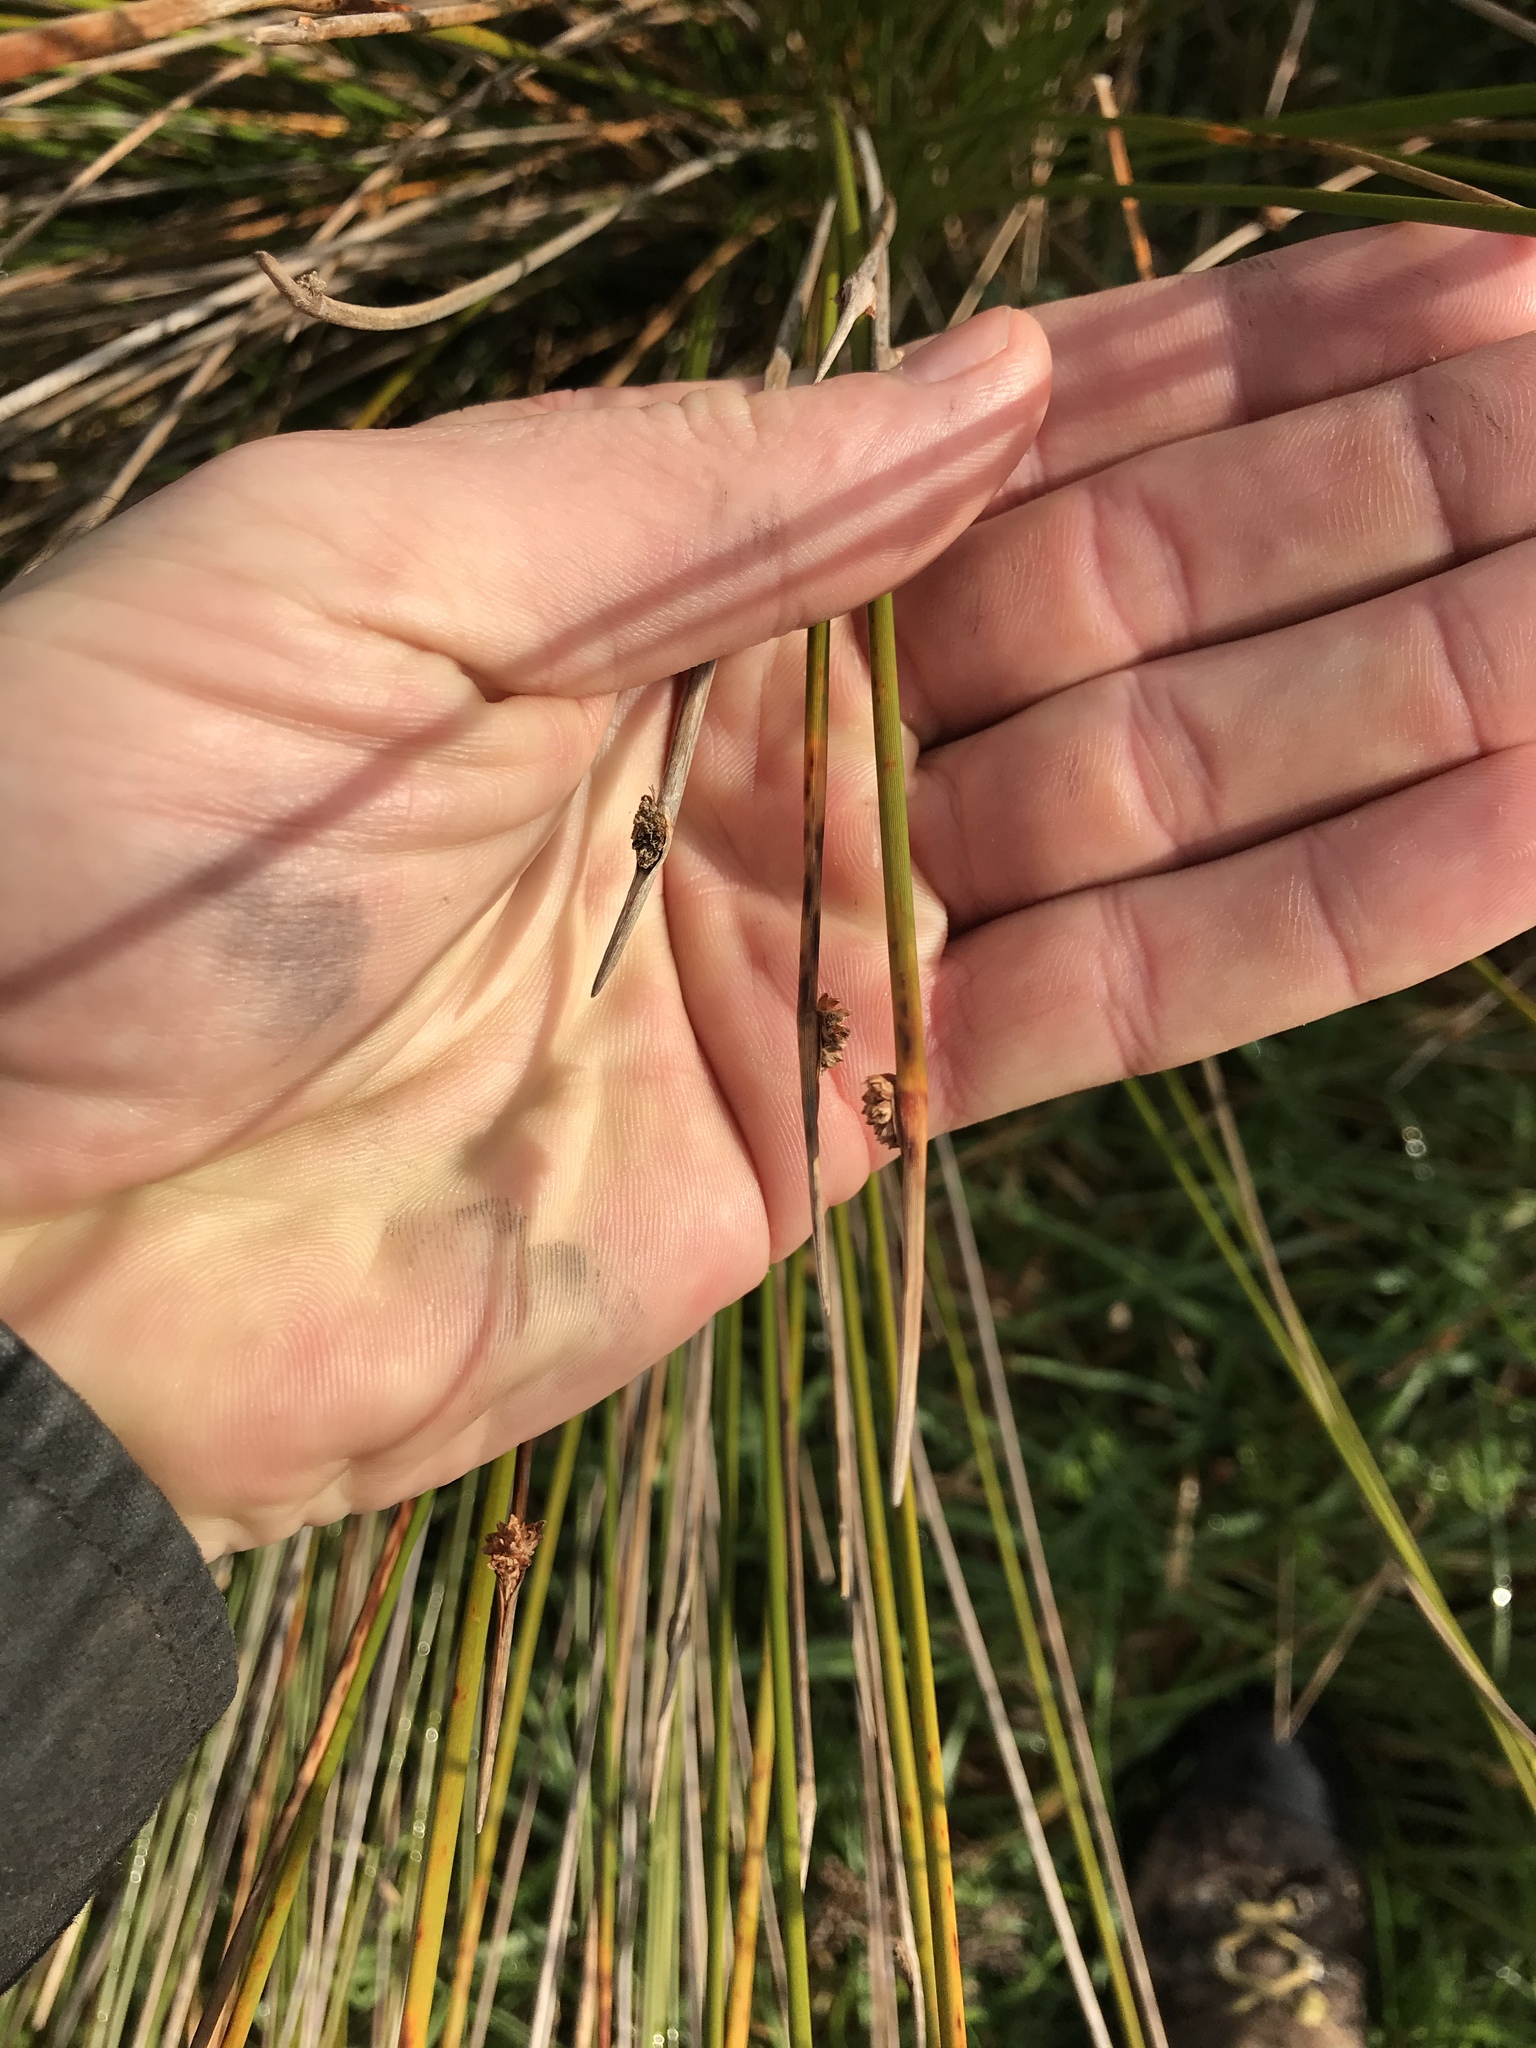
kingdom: Plantae
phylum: Tracheophyta
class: Liliopsida
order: Poales
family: Cyperaceae
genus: Ficinia
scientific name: Ficinia nodosa
